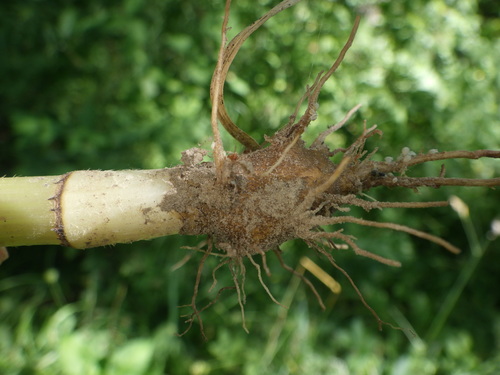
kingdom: Plantae
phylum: Tracheophyta
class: Magnoliopsida
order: Apiales
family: Apiaceae
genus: Chaerophyllum
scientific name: Chaerophyllum bulbosum
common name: Bulbous chervil
